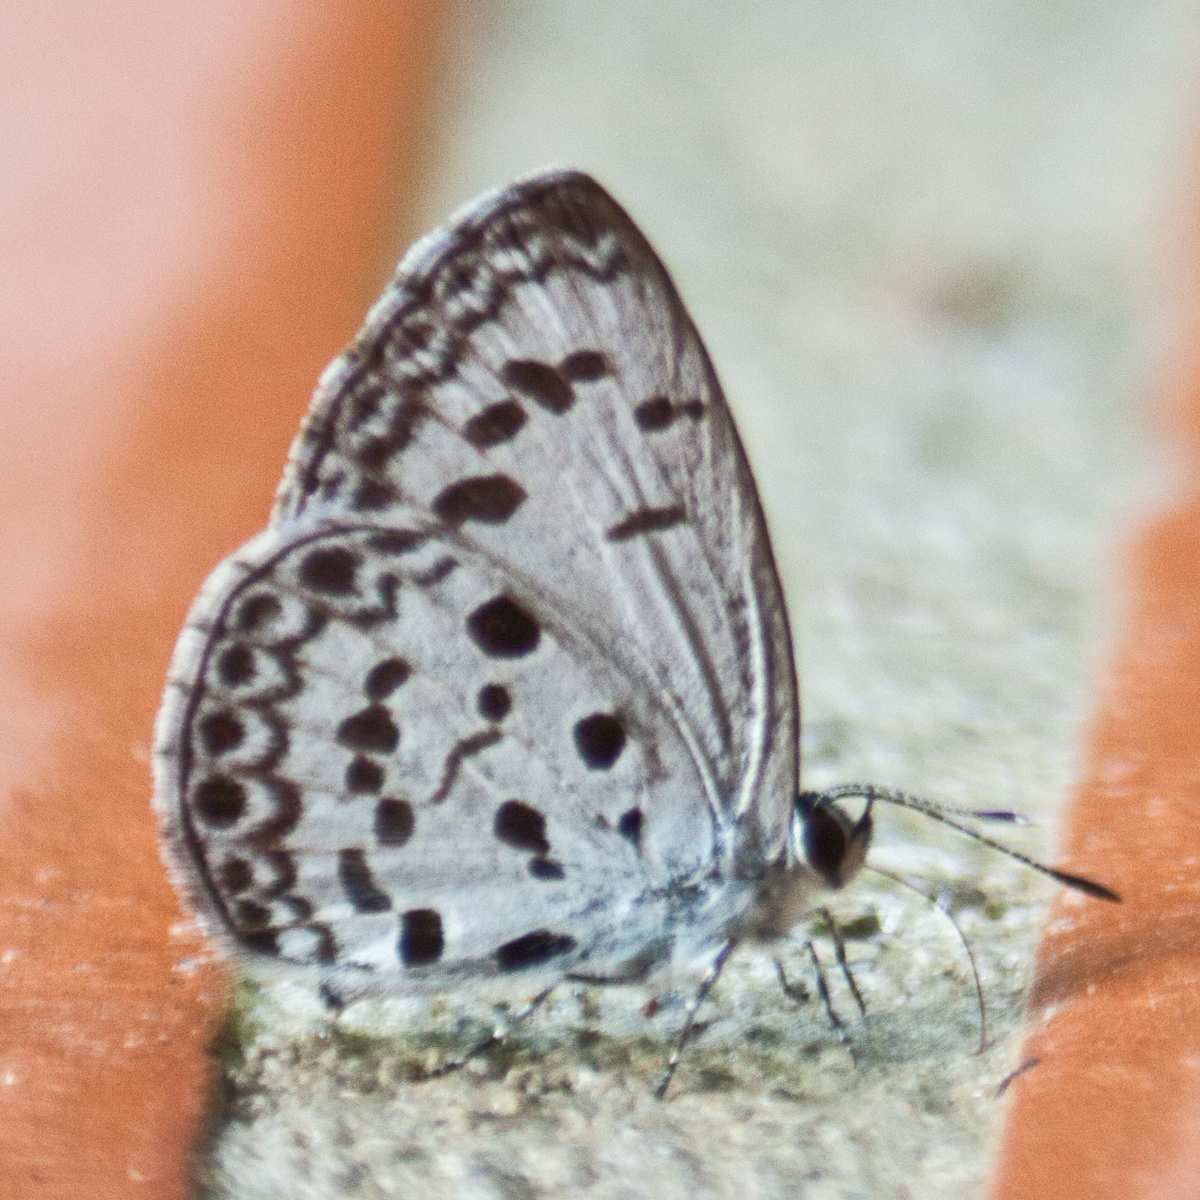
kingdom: Animalia
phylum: Arthropoda
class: Insecta
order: Lepidoptera
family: Lycaenidae
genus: Acytolepis
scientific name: Acytolepis puspa
